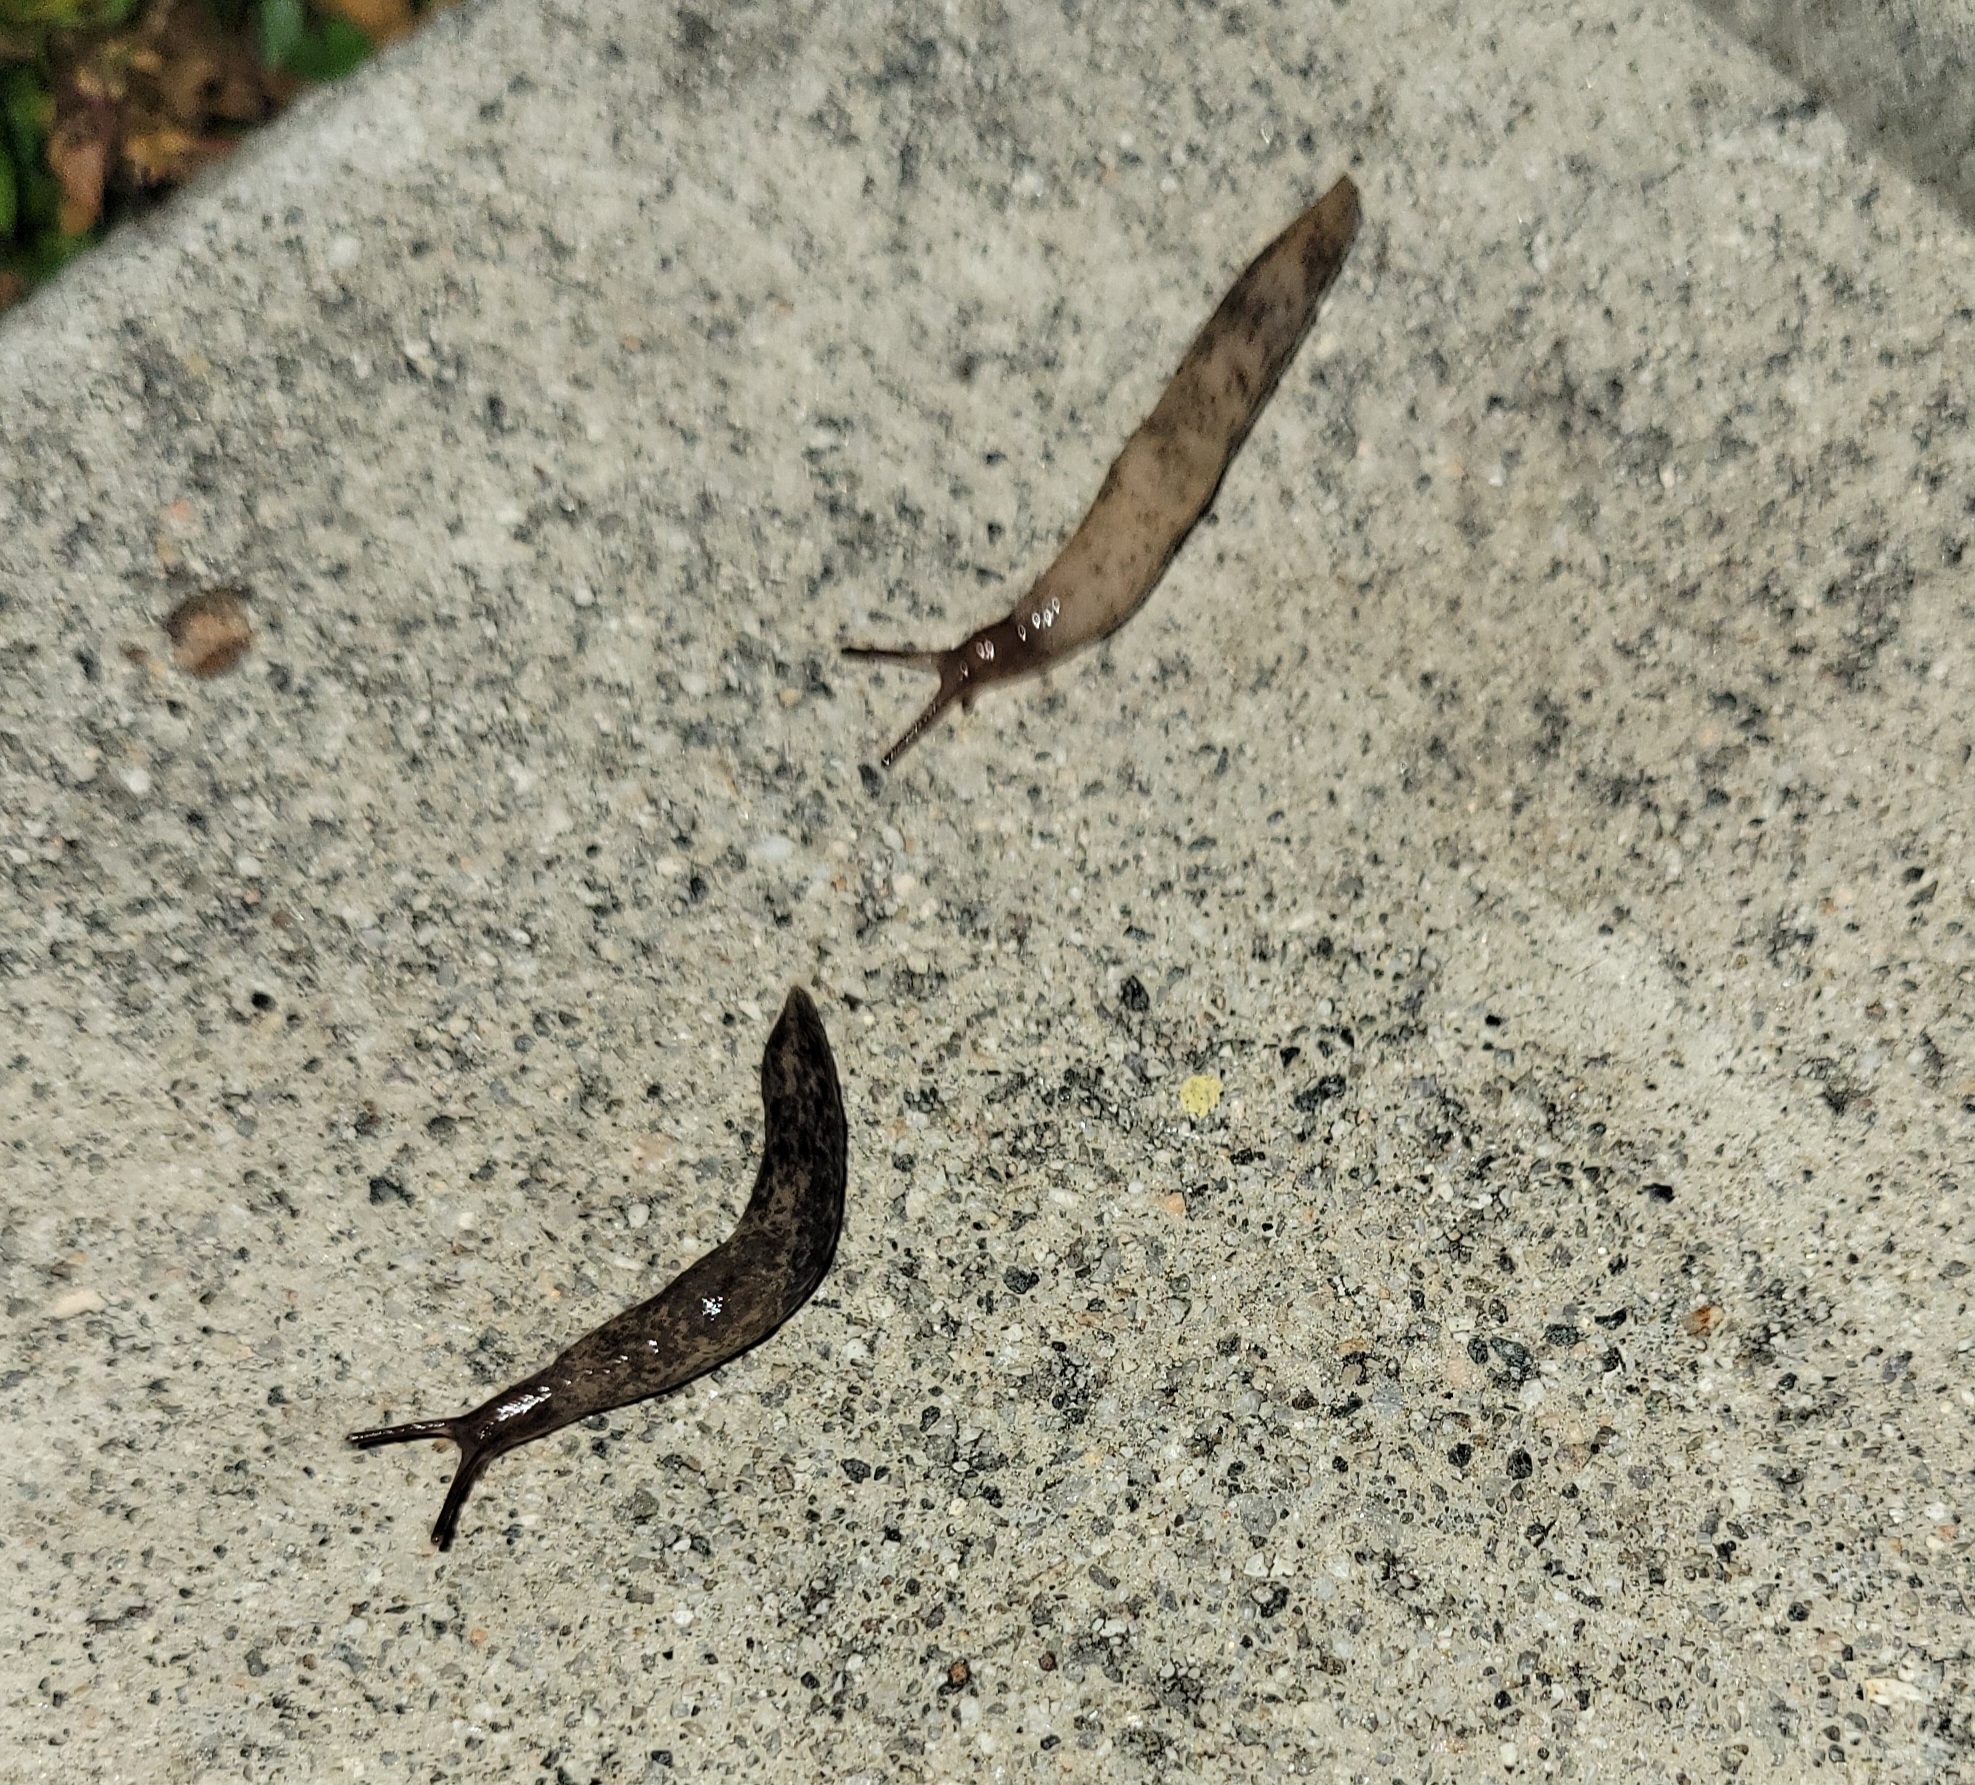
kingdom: Animalia
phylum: Mollusca
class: Gastropoda
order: Stylommatophora
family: Agriolimacidae
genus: Deroceras
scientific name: Deroceras reticulatum
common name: Gray field slug
